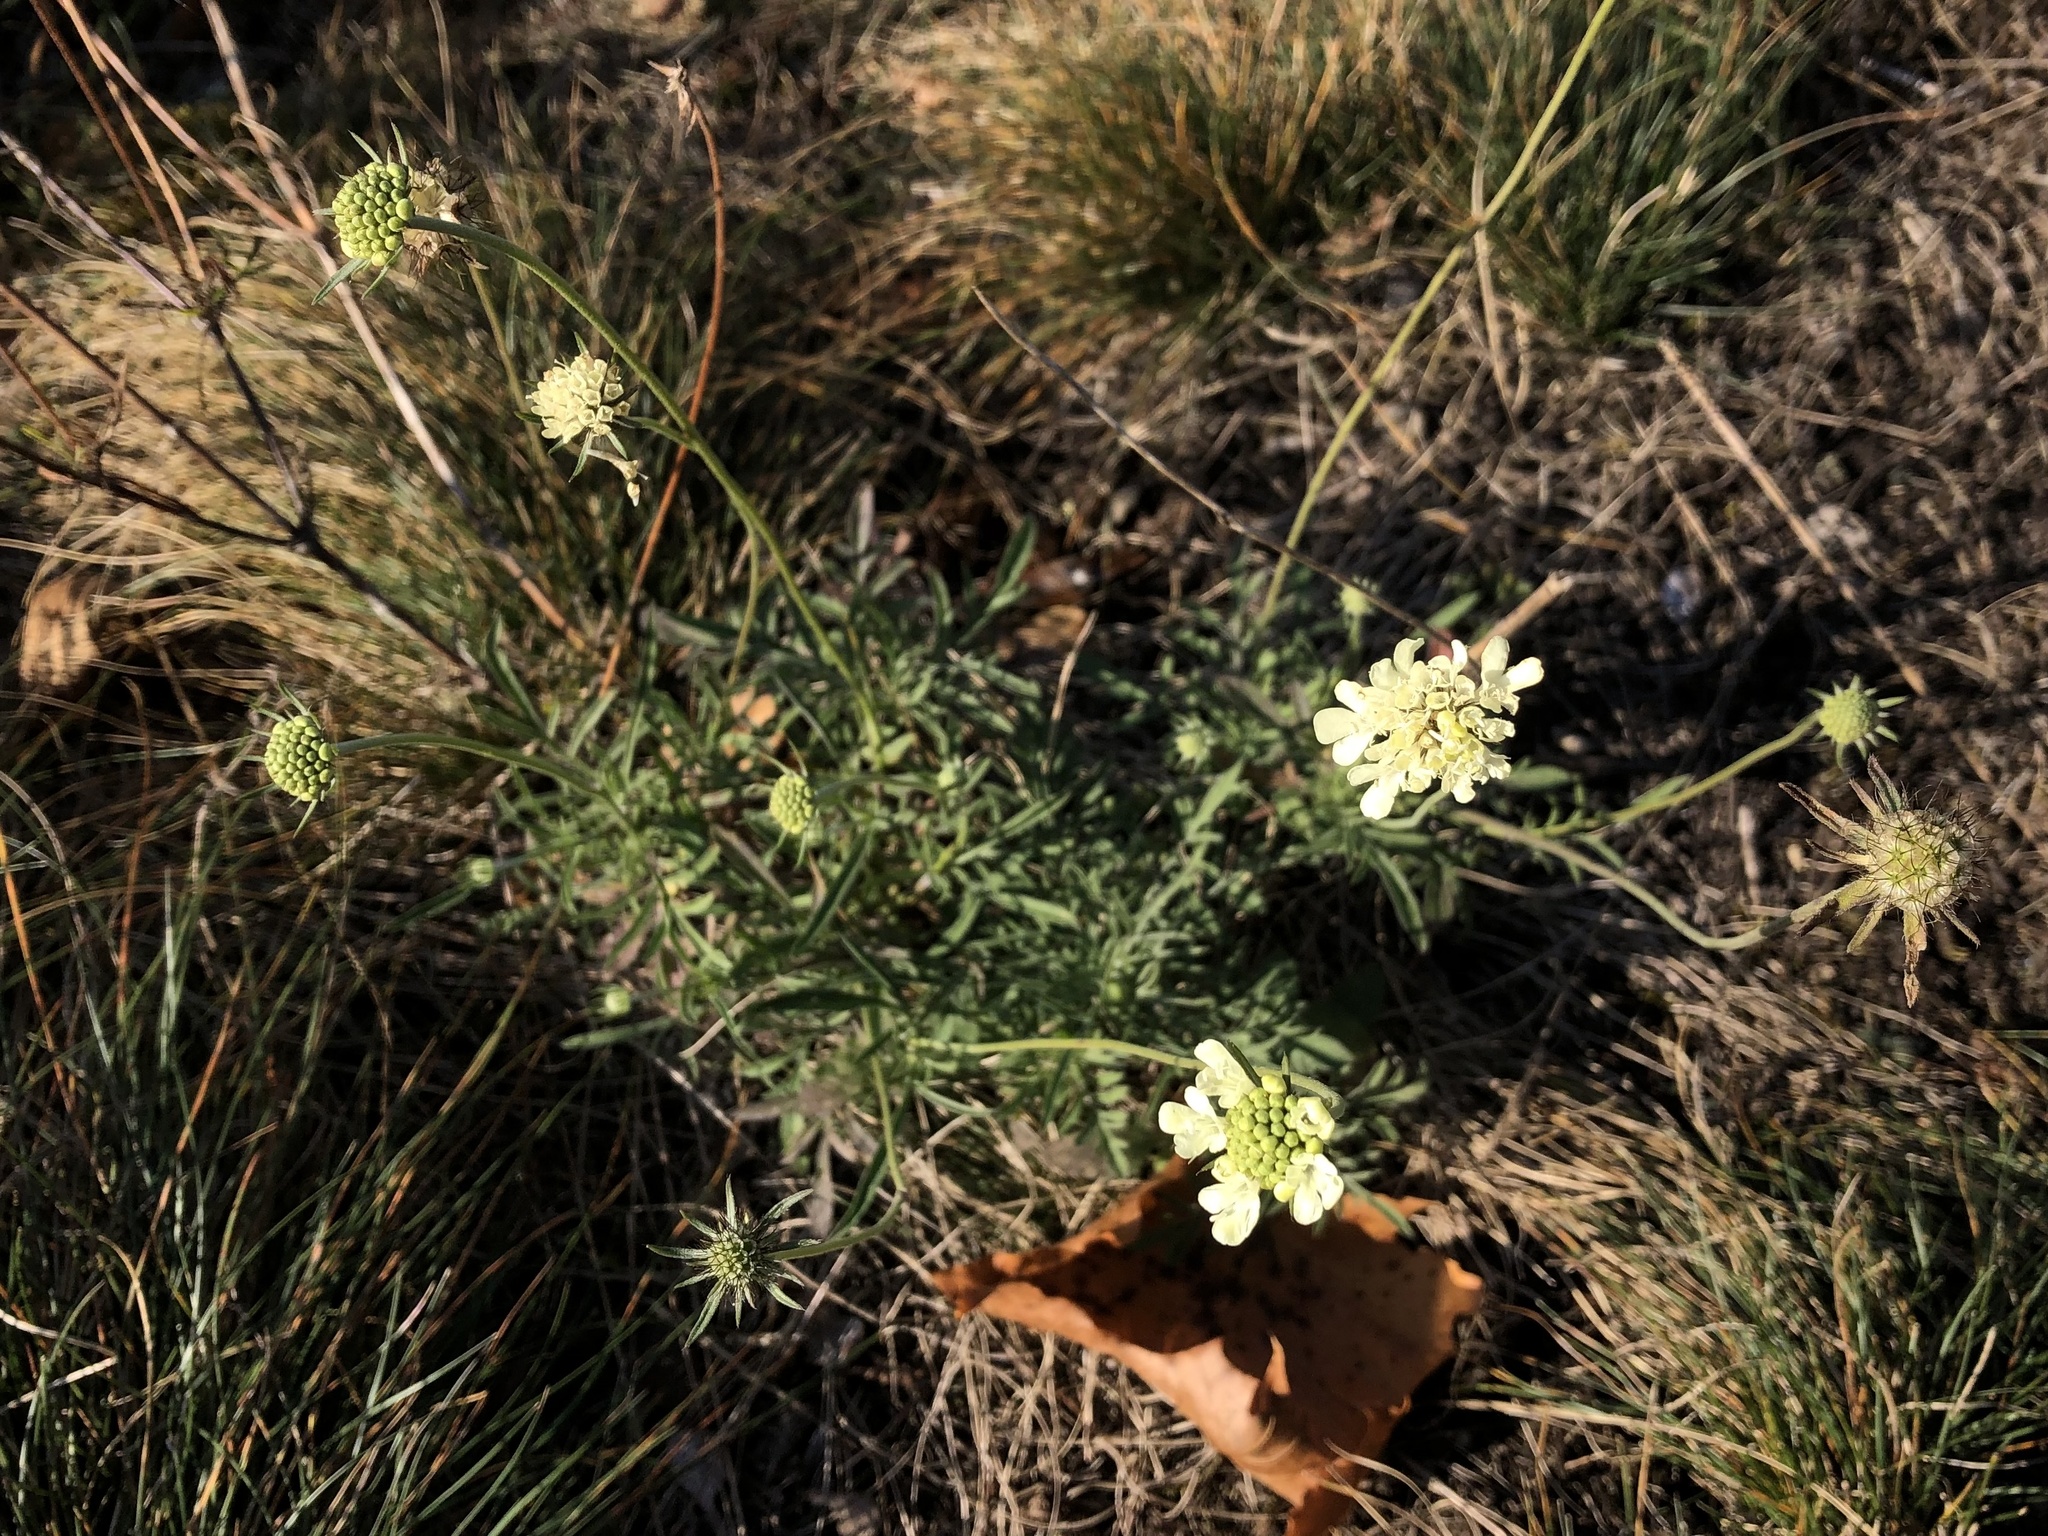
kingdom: Plantae
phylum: Tracheophyta
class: Magnoliopsida
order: Dipsacales
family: Caprifoliaceae
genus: Scabiosa
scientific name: Scabiosa ochroleuca
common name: Cream pincushions
